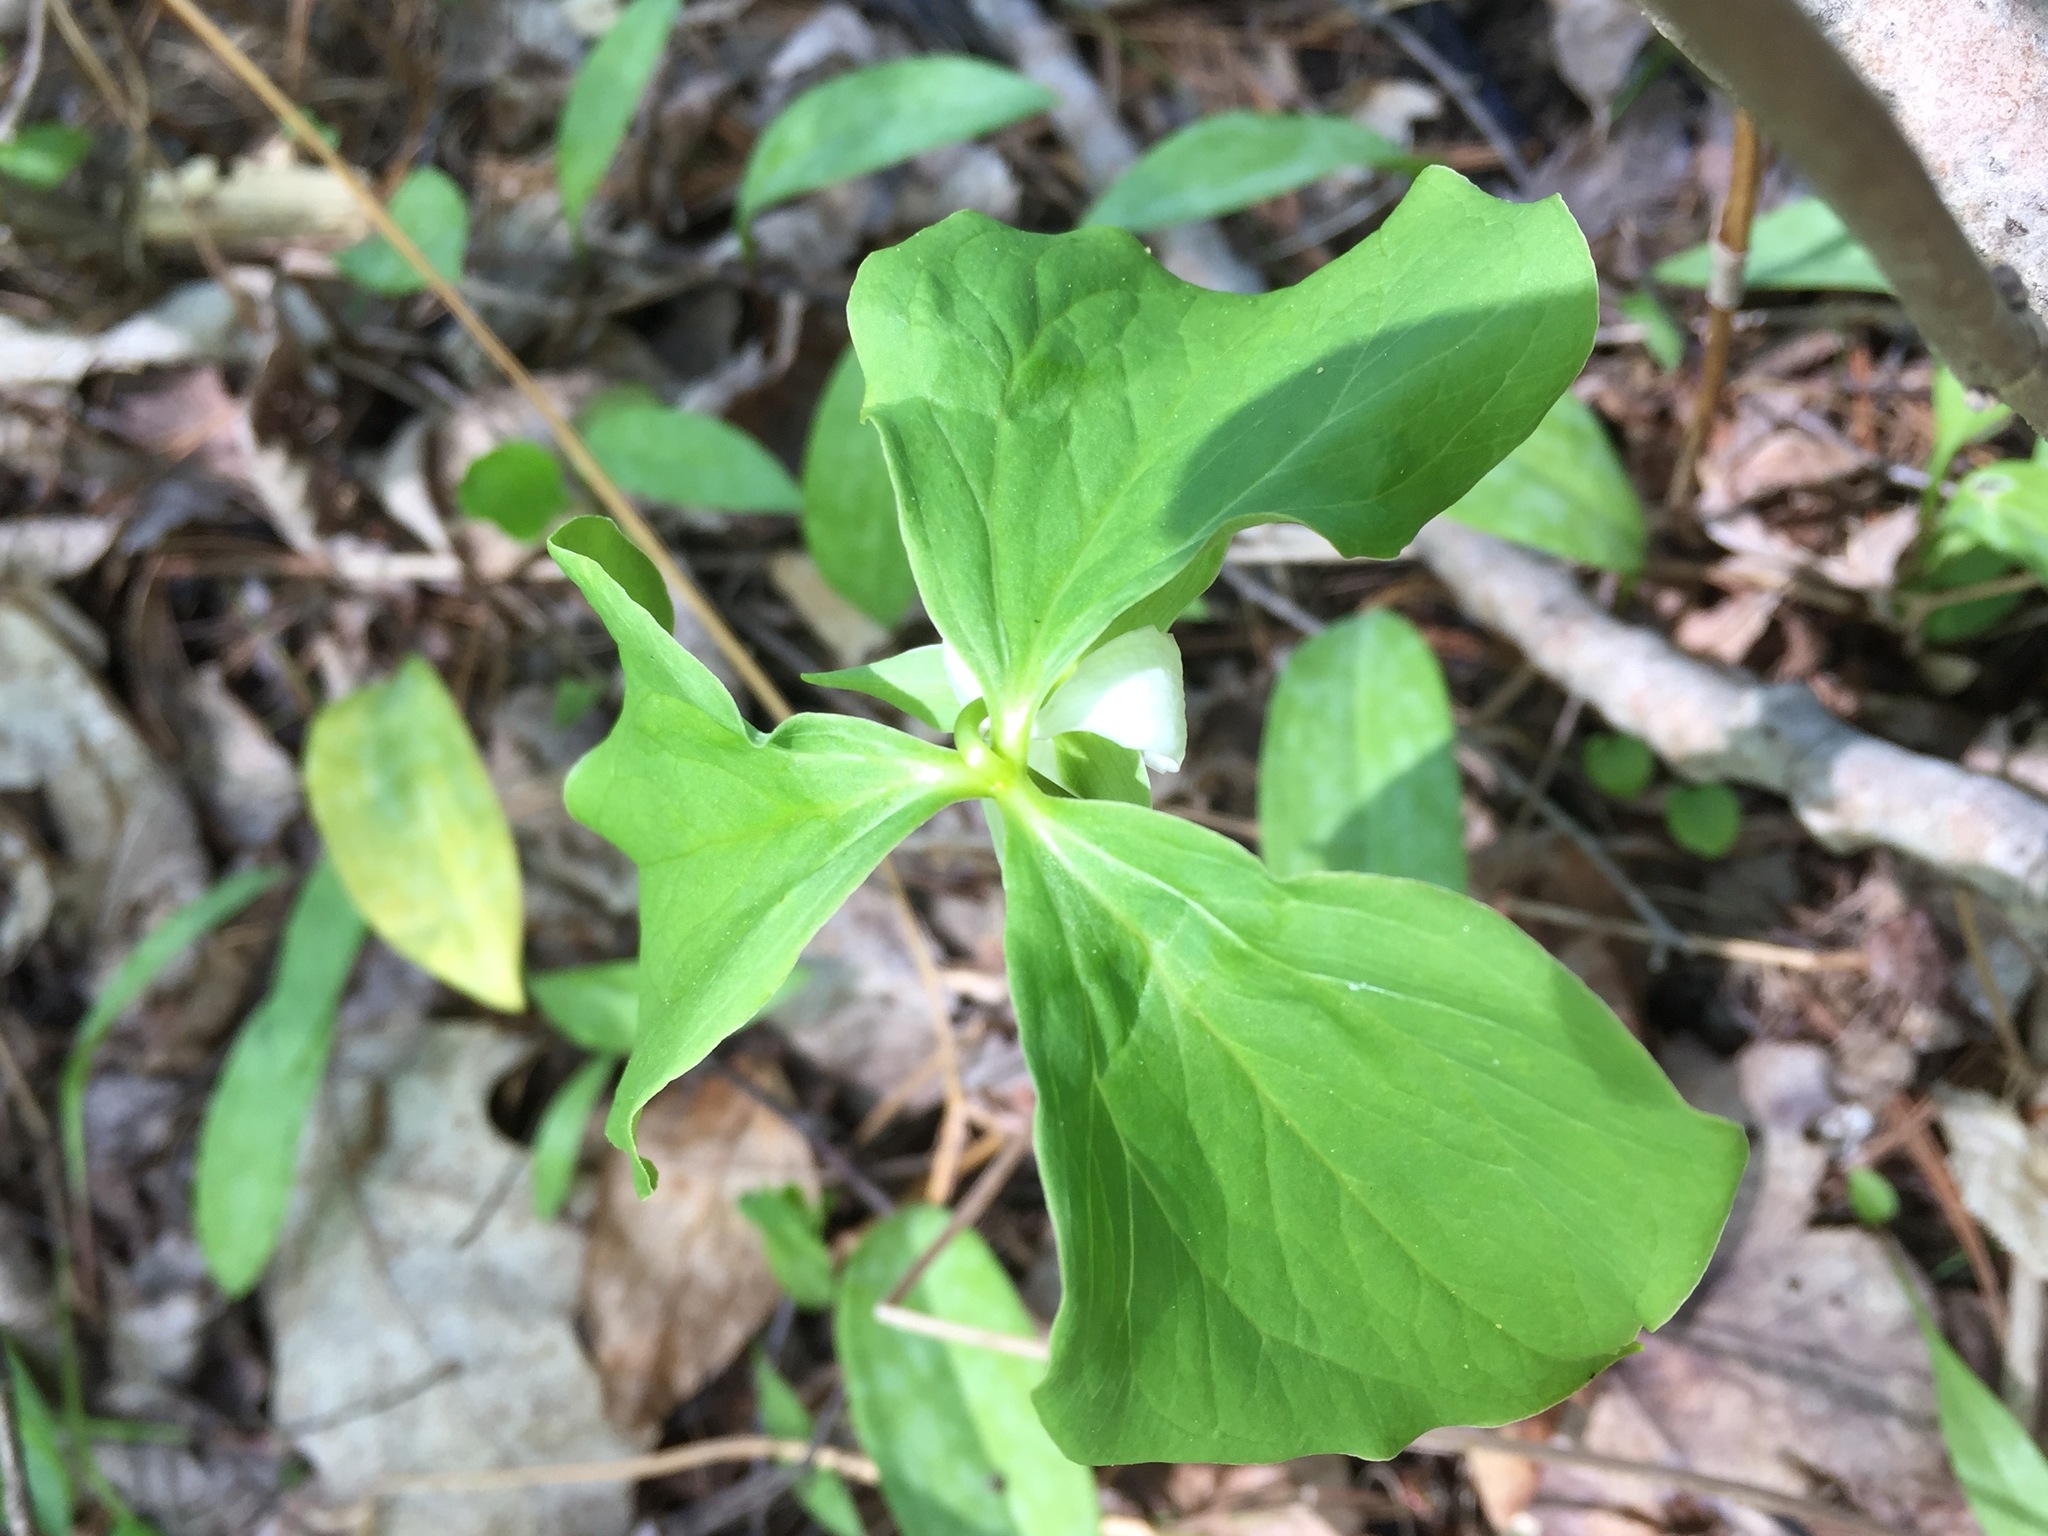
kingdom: Plantae
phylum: Tracheophyta
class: Liliopsida
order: Liliales
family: Melanthiaceae
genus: Trillium
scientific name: Trillium cernuum
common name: Nodding trillium
